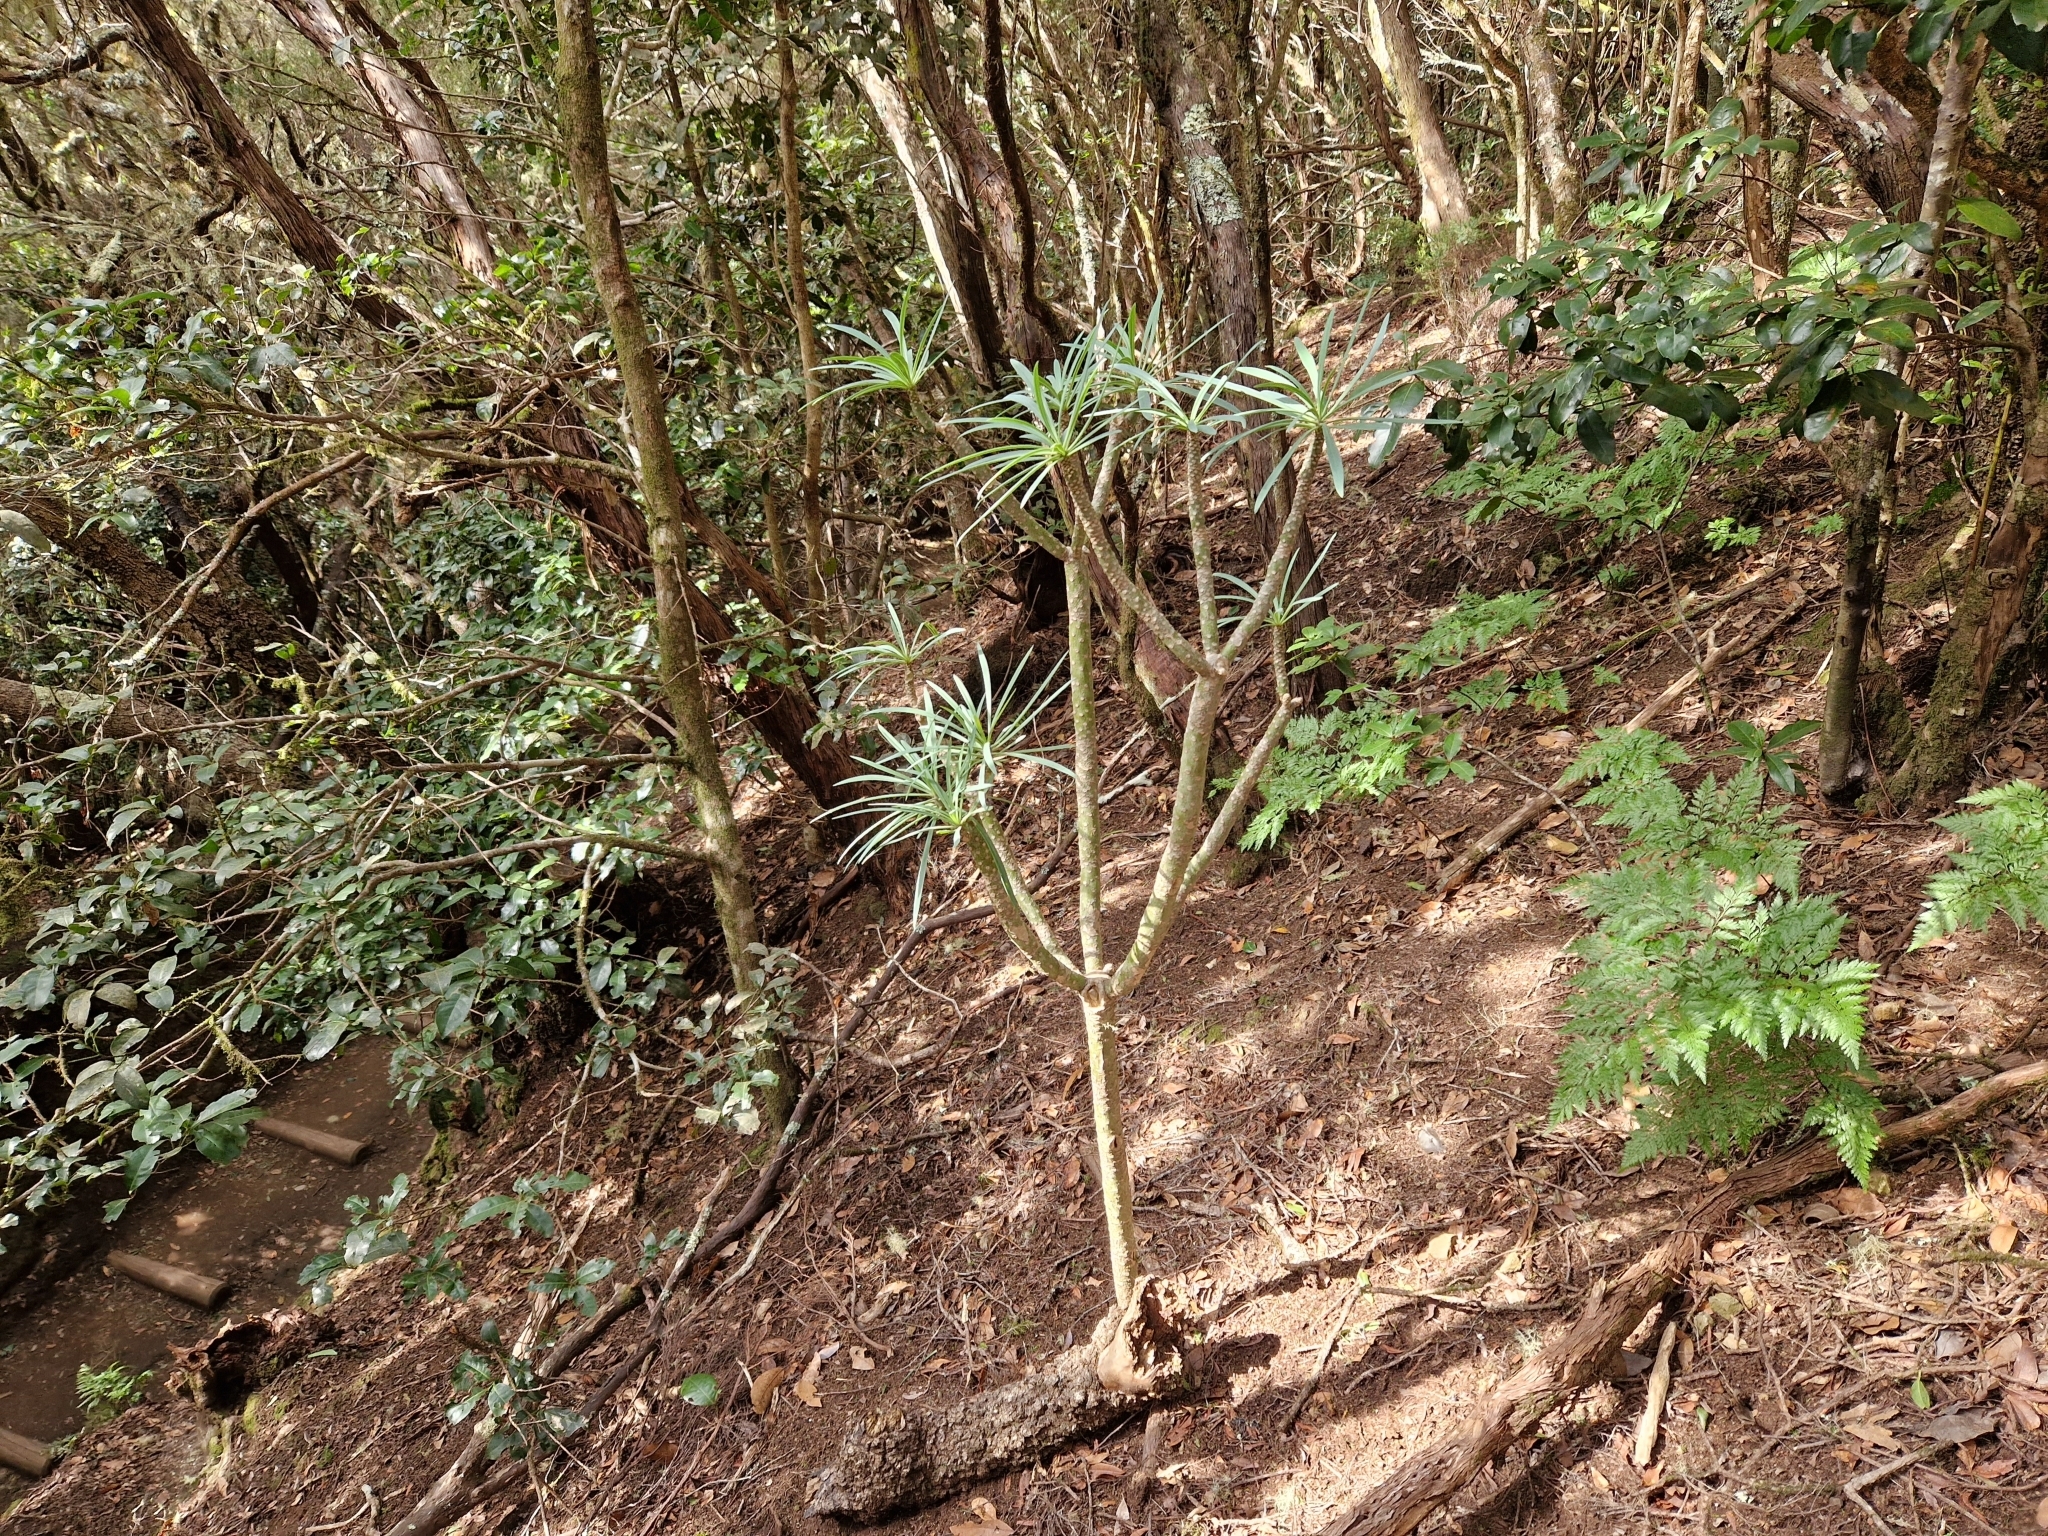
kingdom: Plantae
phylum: Tracheophyta
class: Magnoliopsida
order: Asterales
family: Asteraceae
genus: Kleinia
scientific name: Kleinia neriifolia
